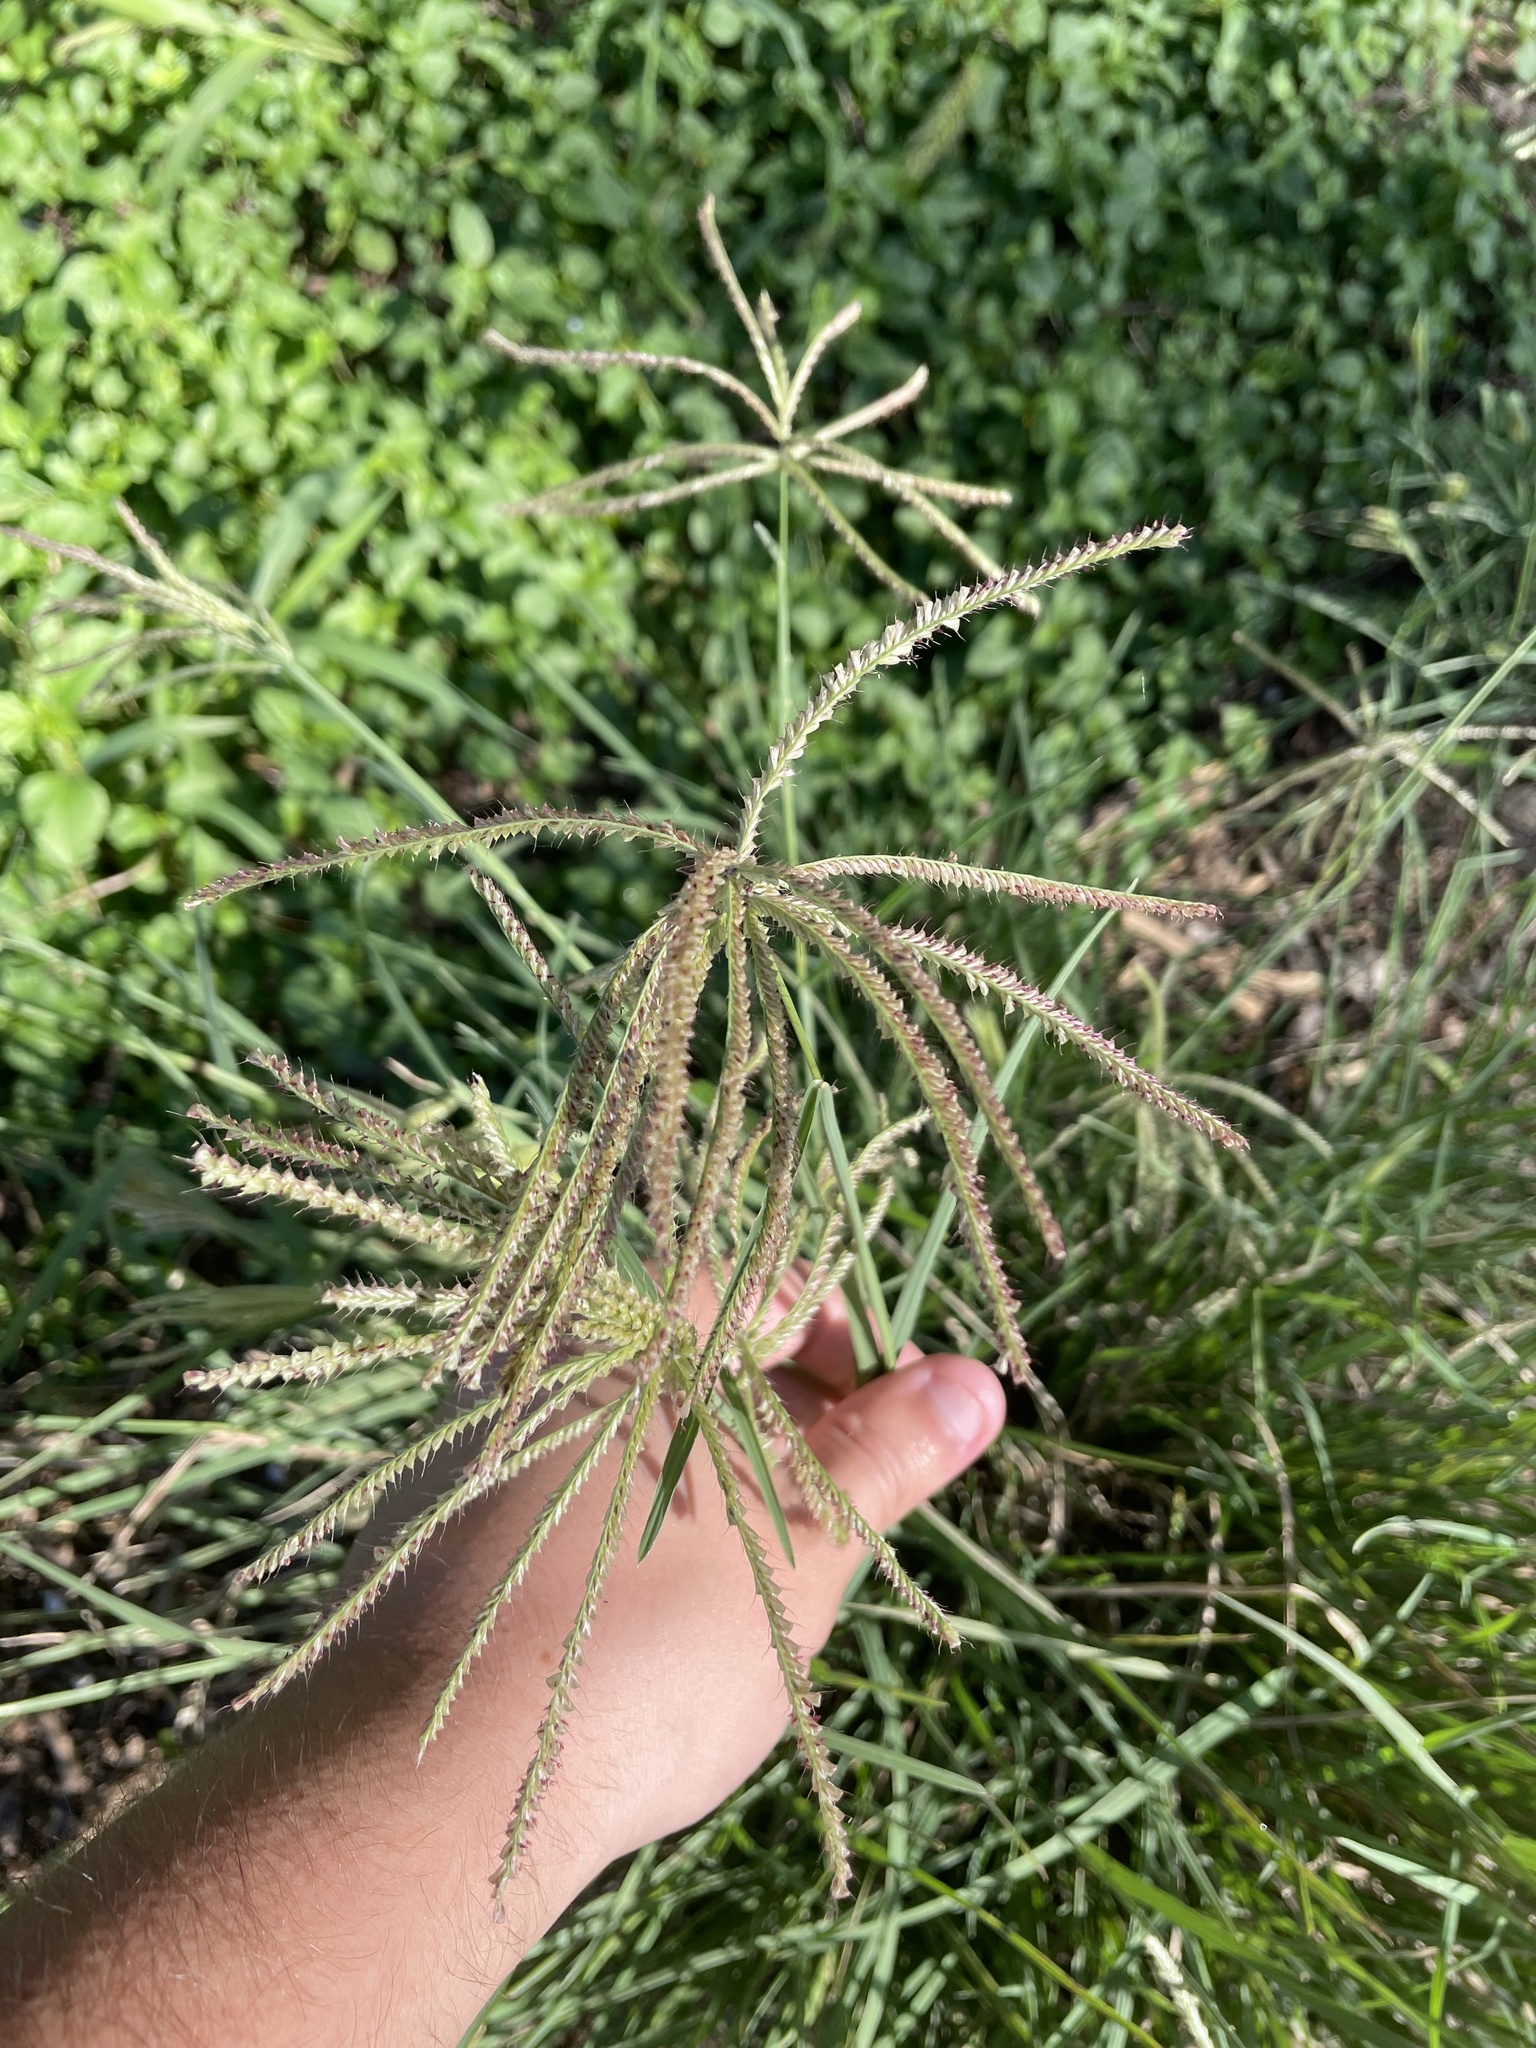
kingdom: Plantae
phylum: Tracheophyta
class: Liliopsida
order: Poales
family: Poaceae
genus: Chloris
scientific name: Chloris subdolichostachya
